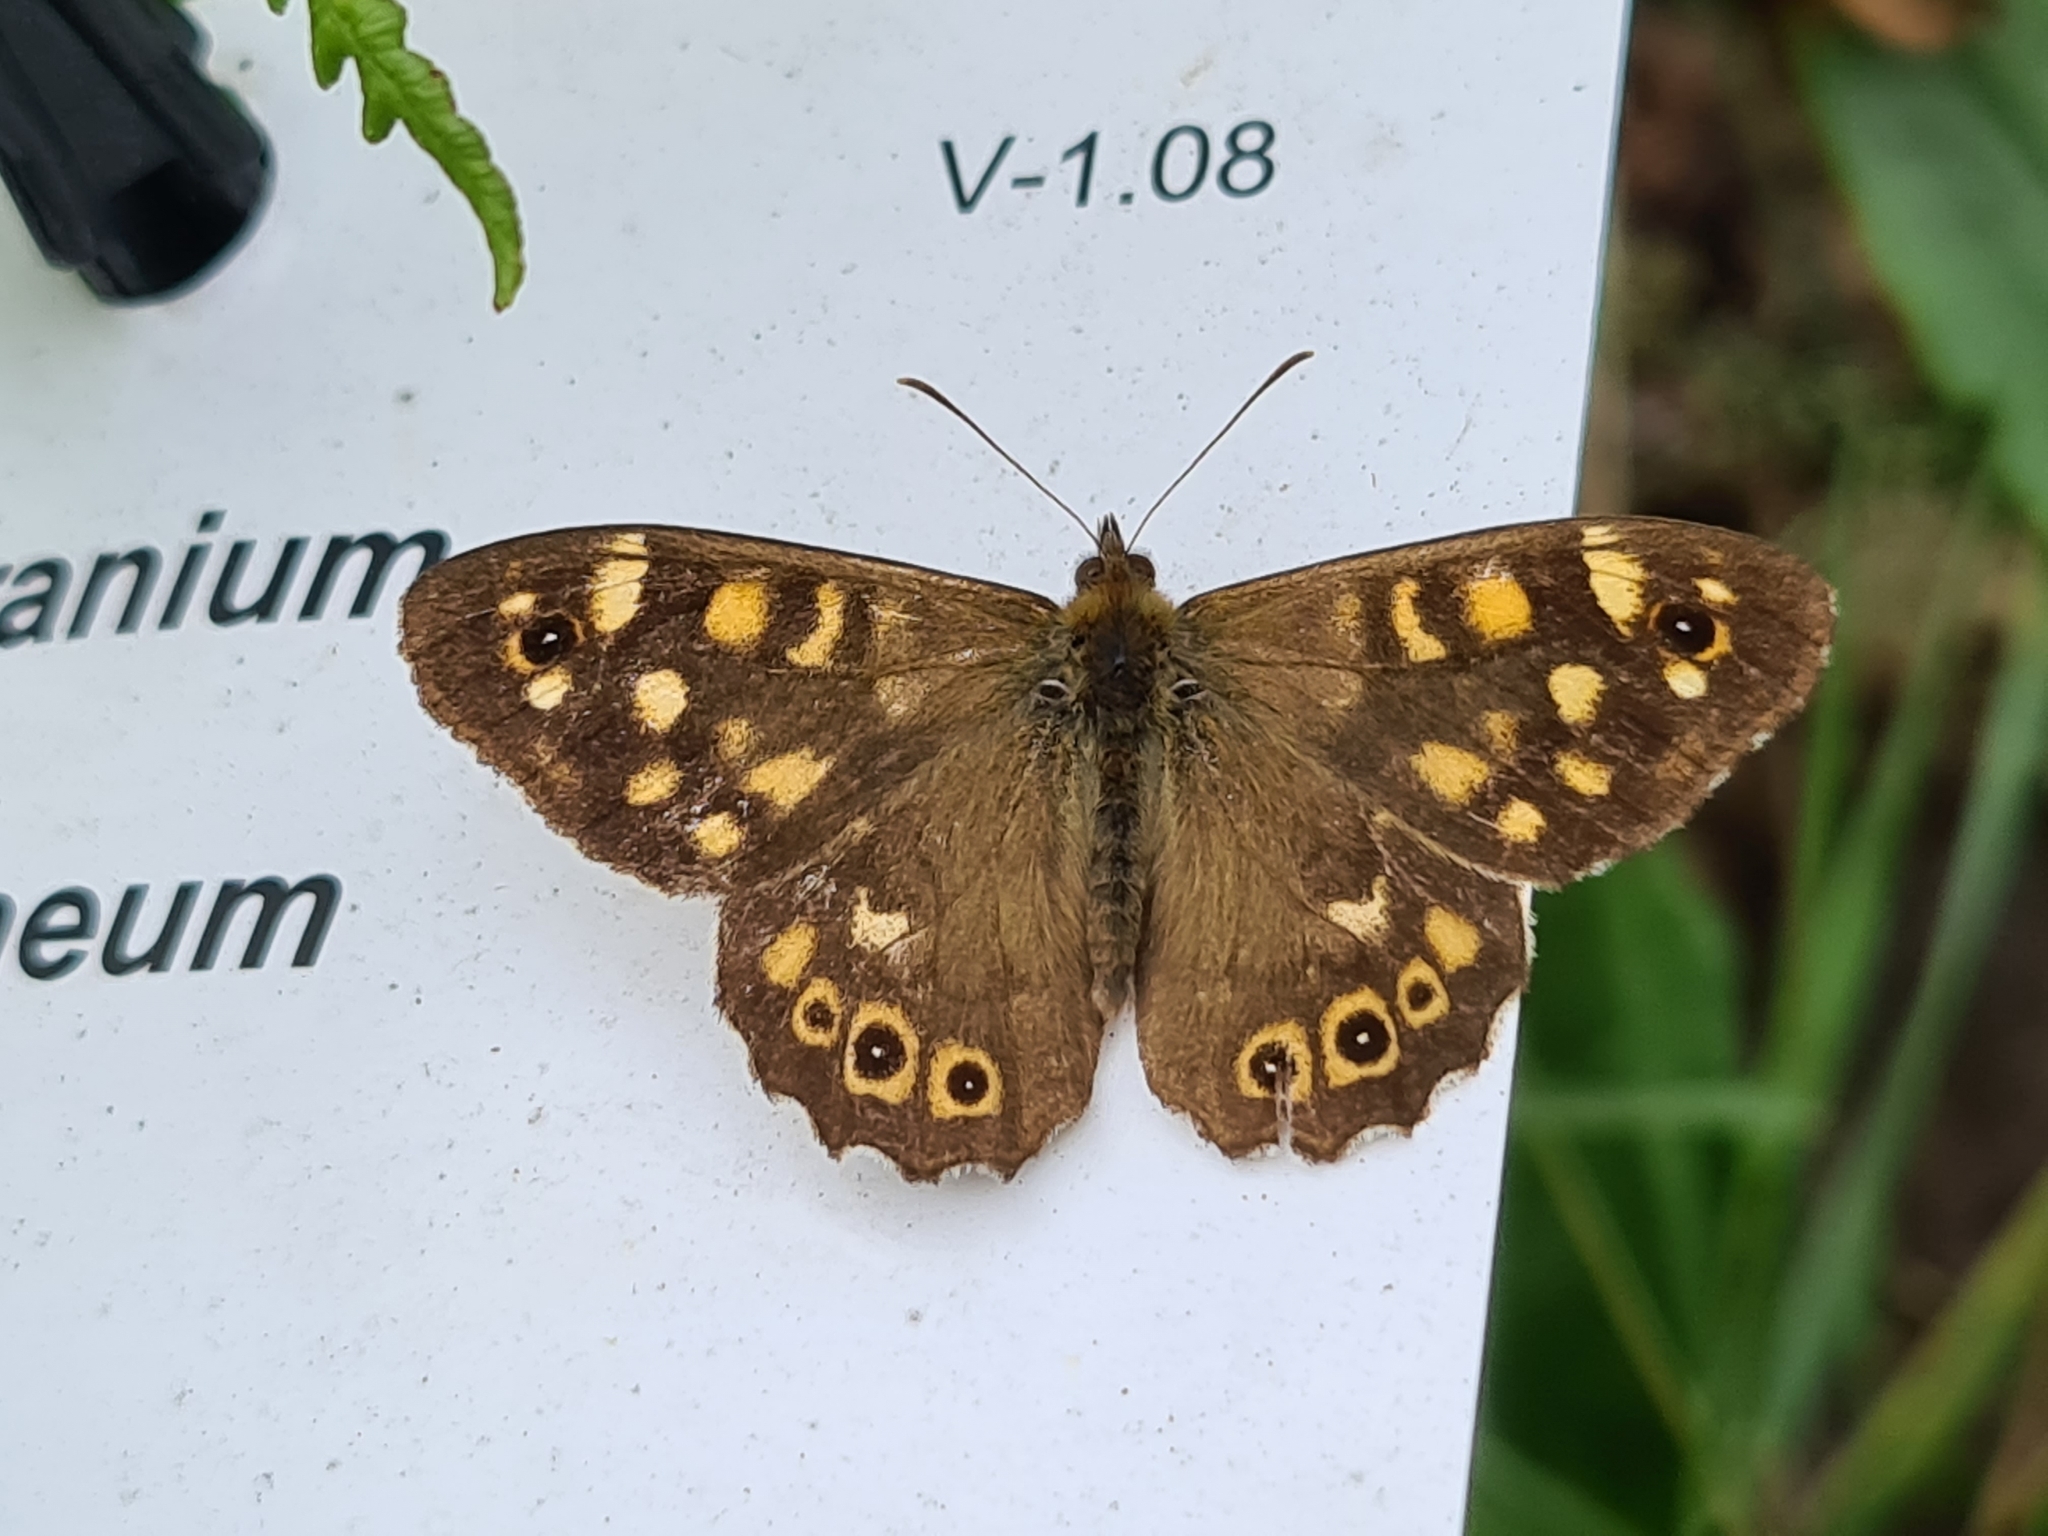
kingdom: Animalia
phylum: Arthropoda
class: Insecta
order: Lepidoptera
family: Nymphalidae
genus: Pararge
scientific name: Pararge aegeria
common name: Speckled wood
